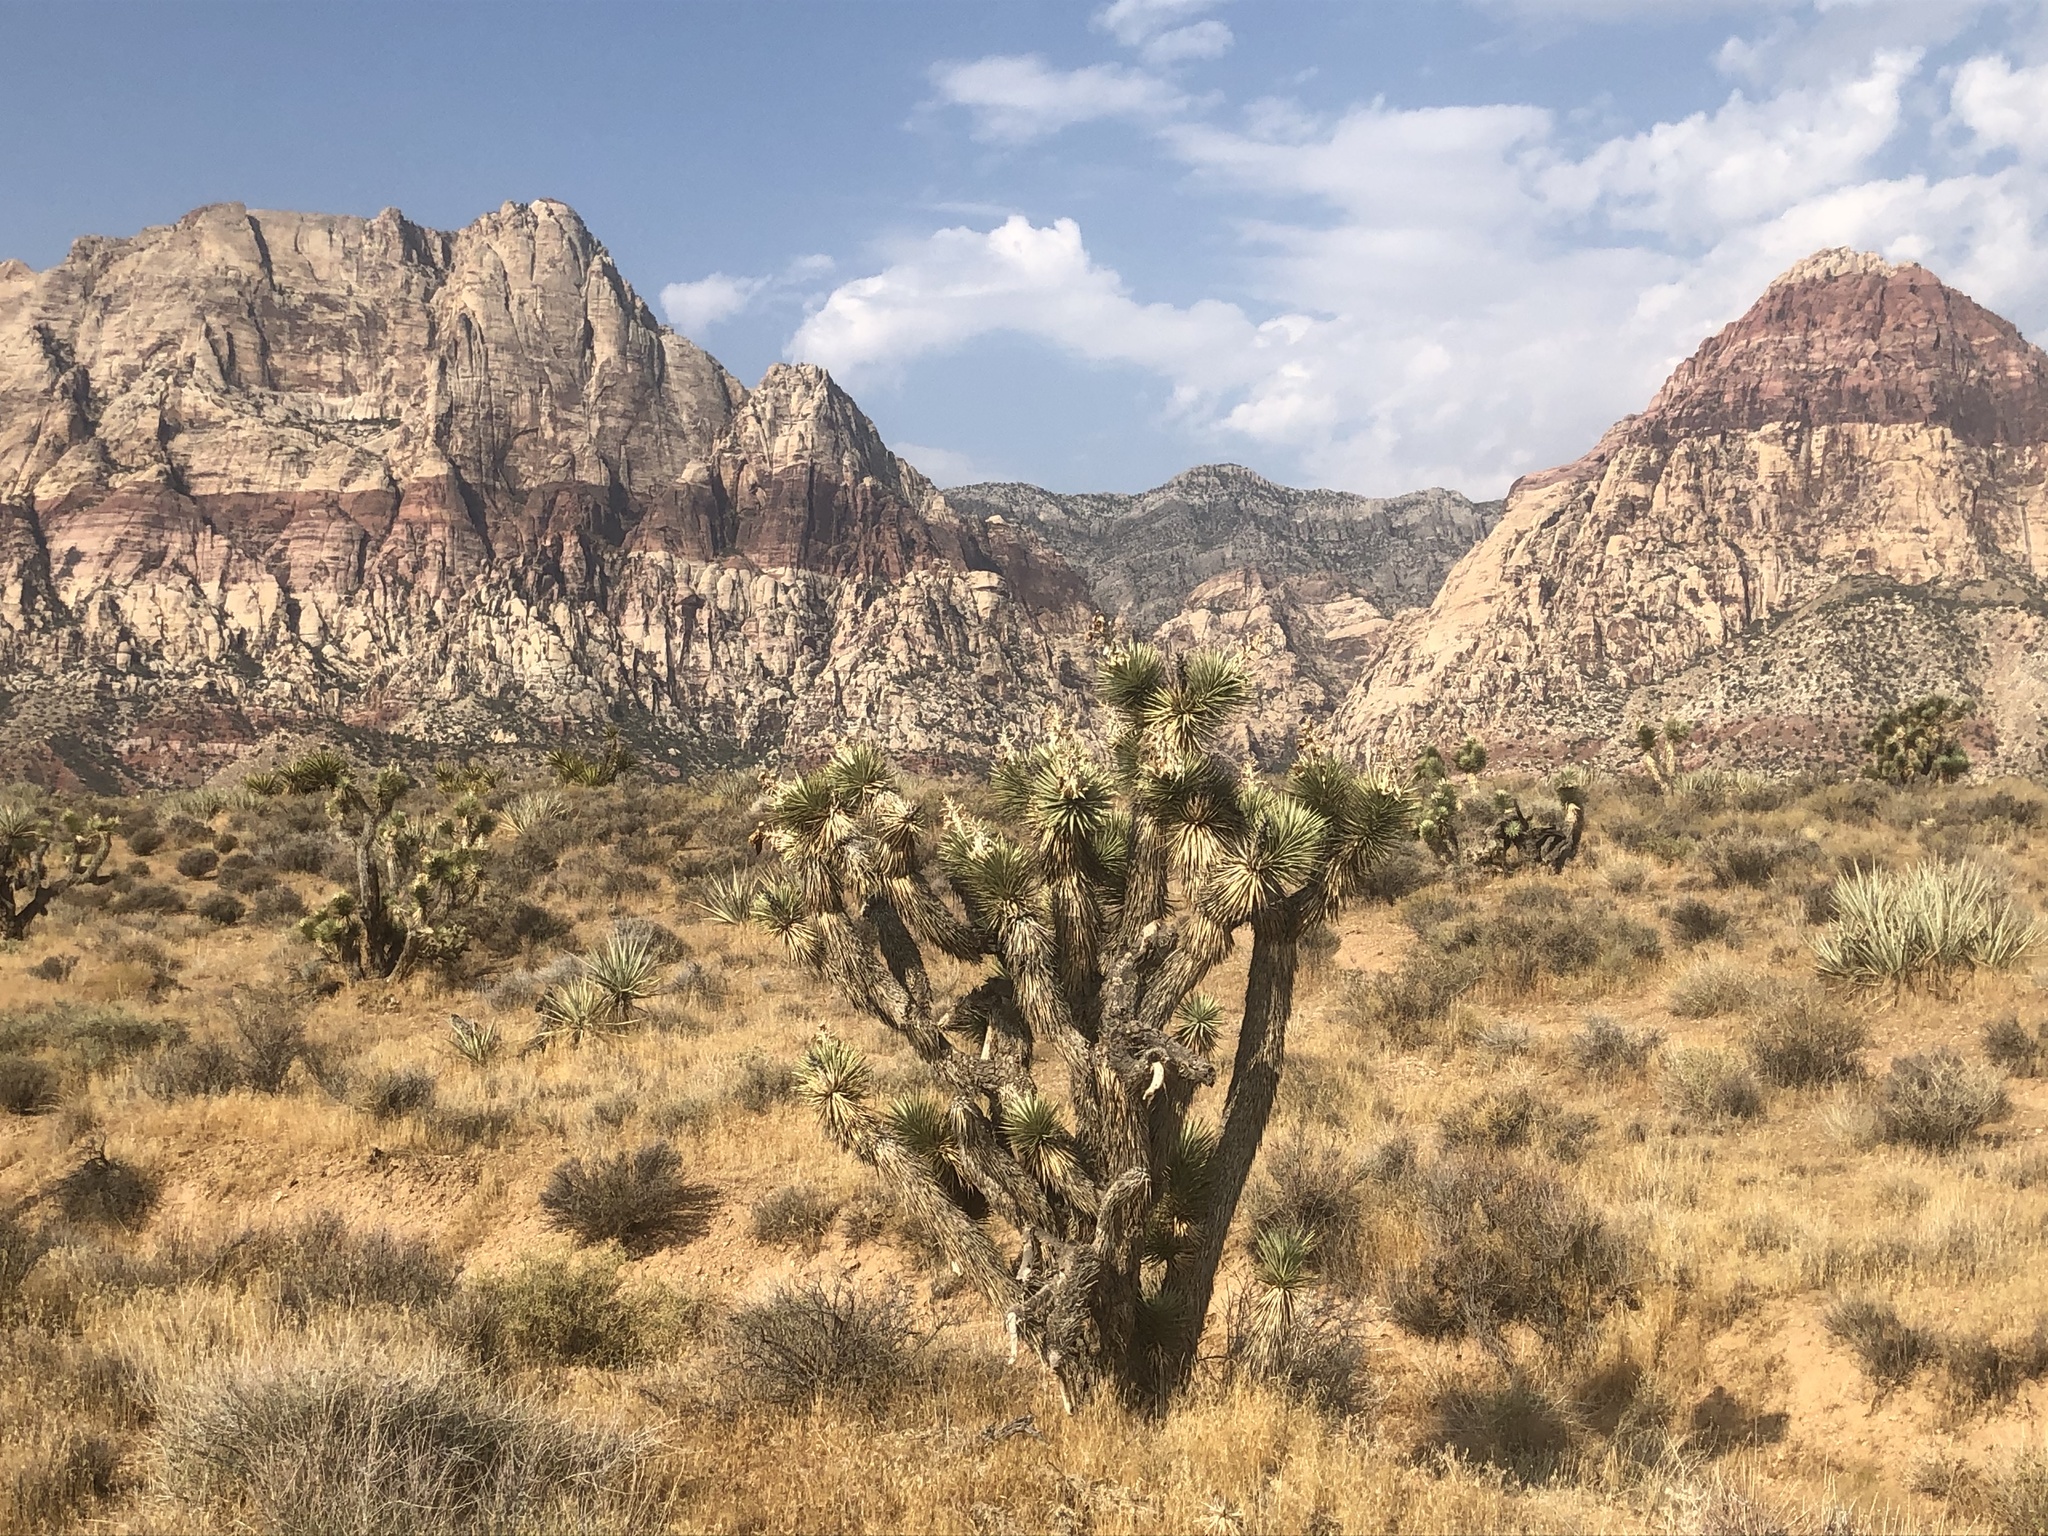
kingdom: Plantae
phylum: Tracheophyta
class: Liliopsida
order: Asparagales
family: Asparagaceae
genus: Yucca
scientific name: Yucca brevifolia
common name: Joshua tree
